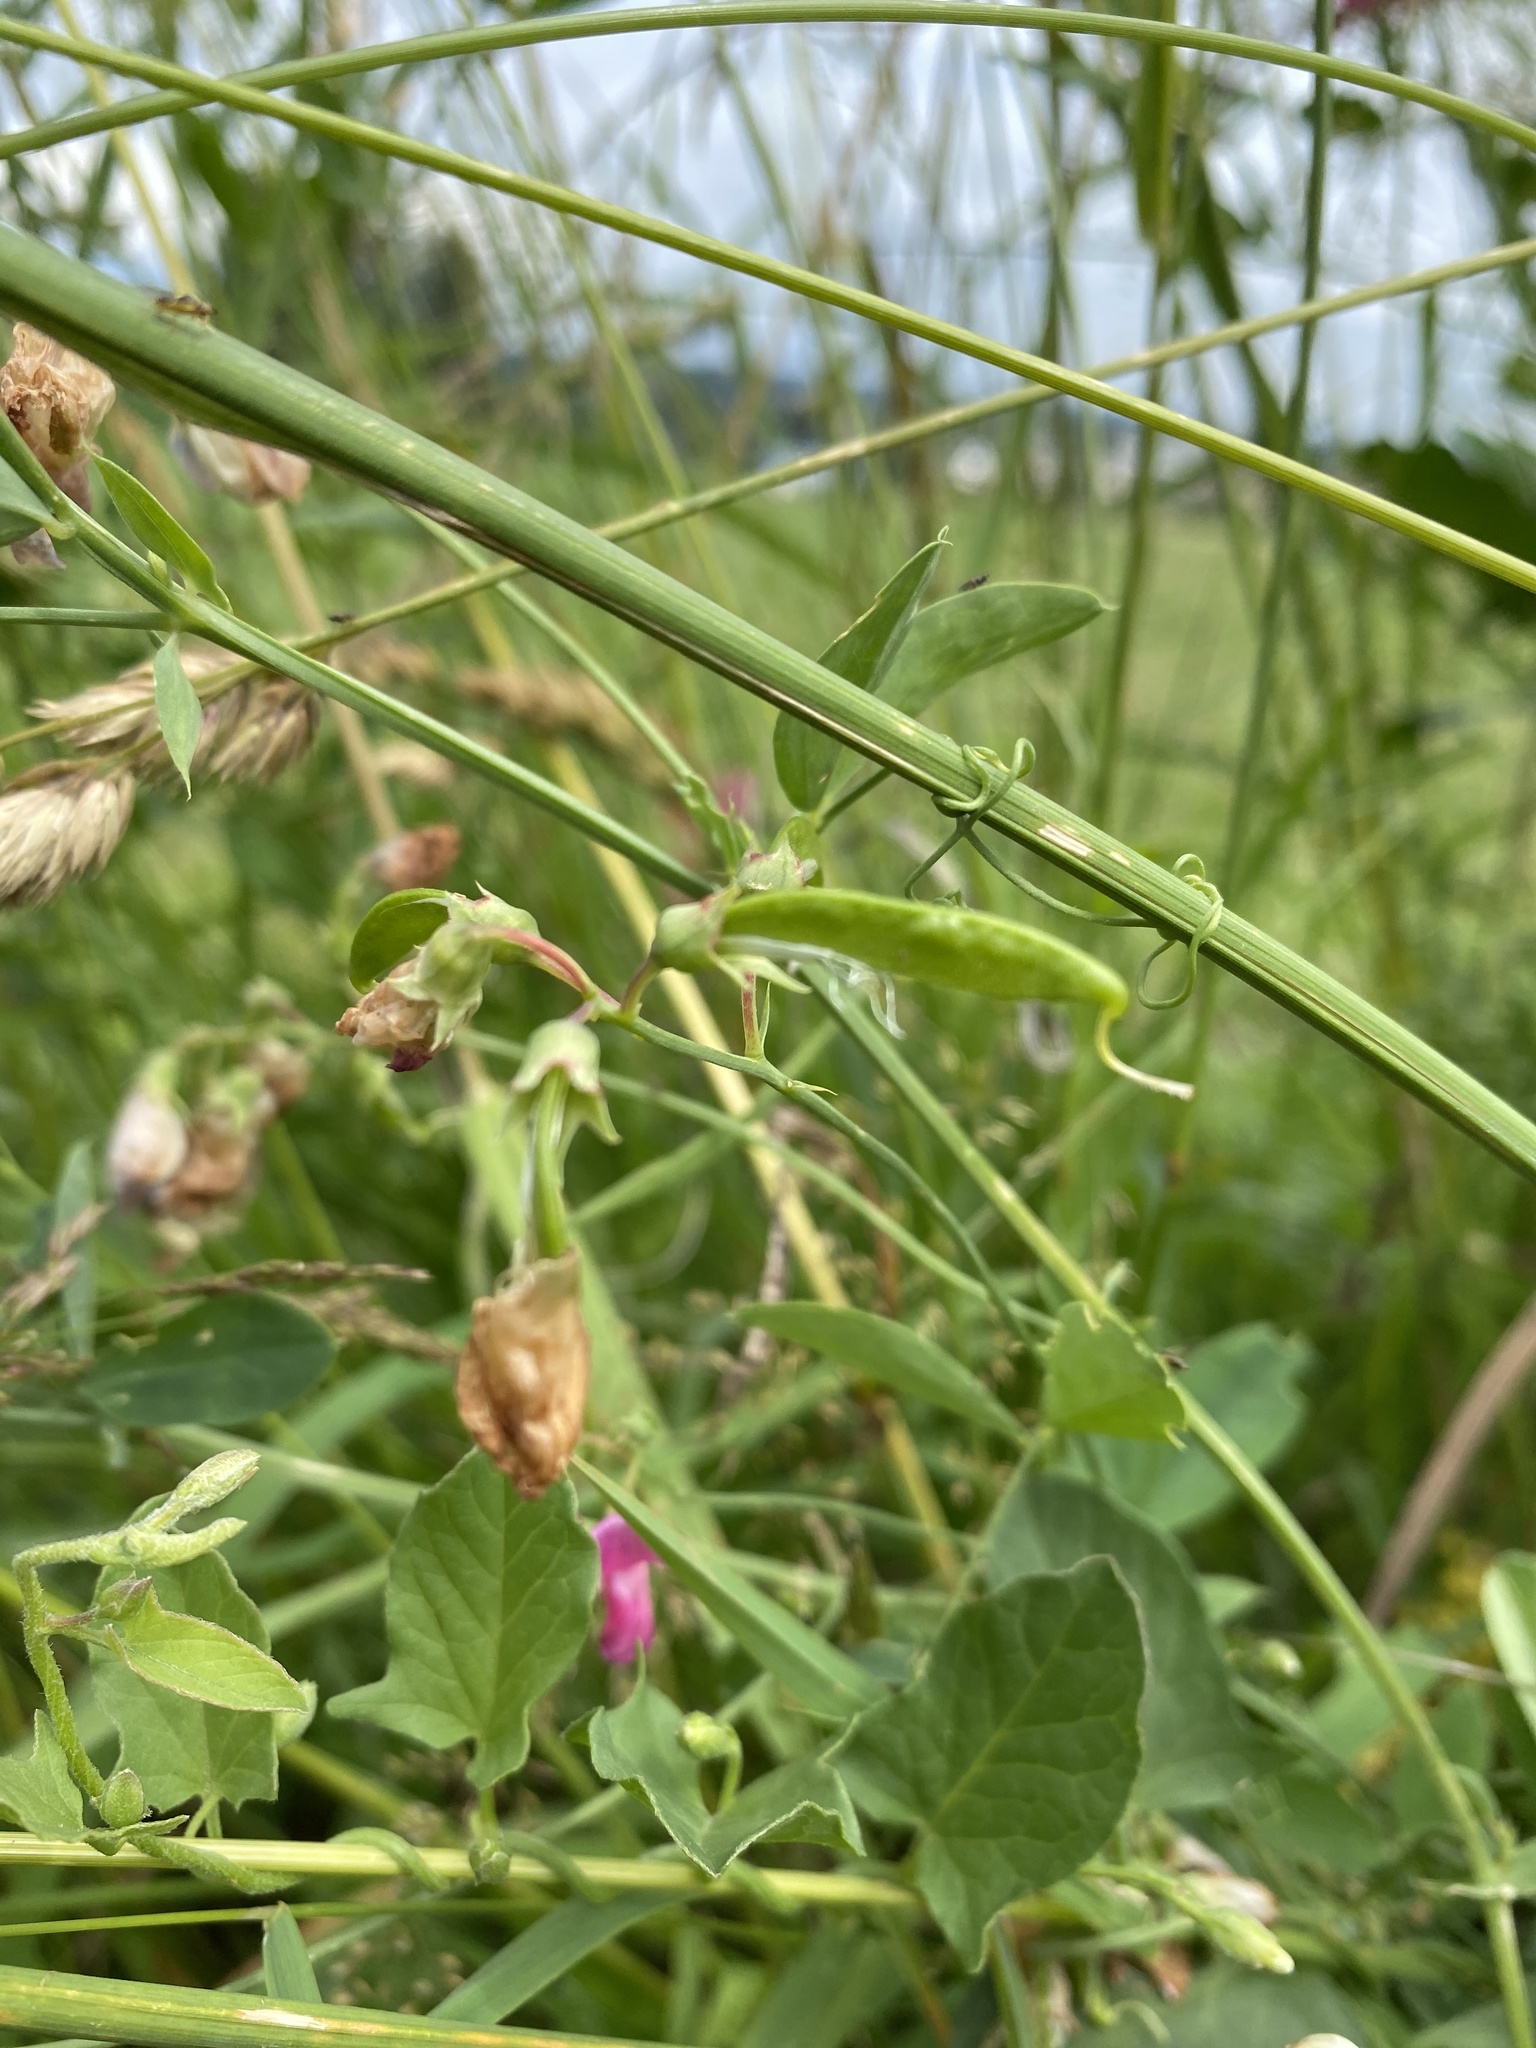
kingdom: Plantae
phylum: Tracheophyta
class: Magnoliopsida
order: Fabales
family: Fabaceae
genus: Lathyrus
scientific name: Lathyrus tuberosus
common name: Tuberous pea
